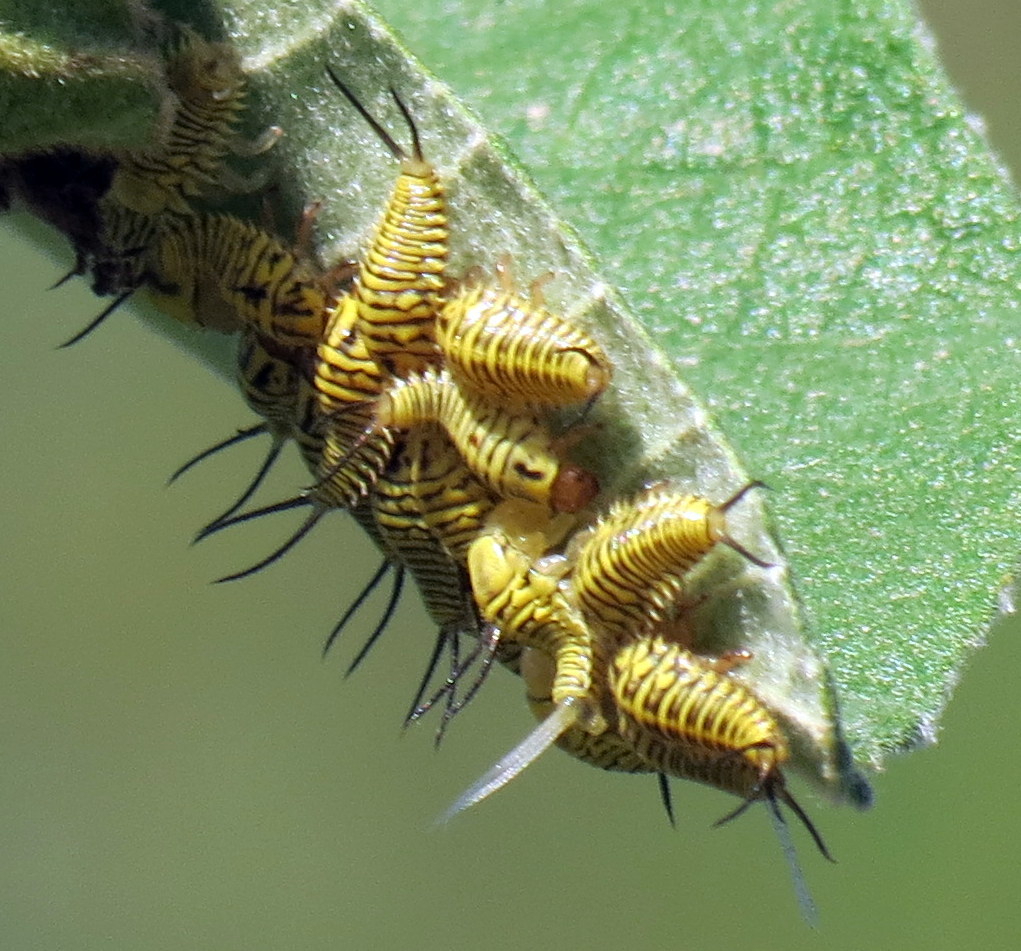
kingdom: Animalia
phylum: Arthropoda
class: Insecta
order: Coleoptera
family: Chrysomelidae
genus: Physonota
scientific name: Physonota alutacea
